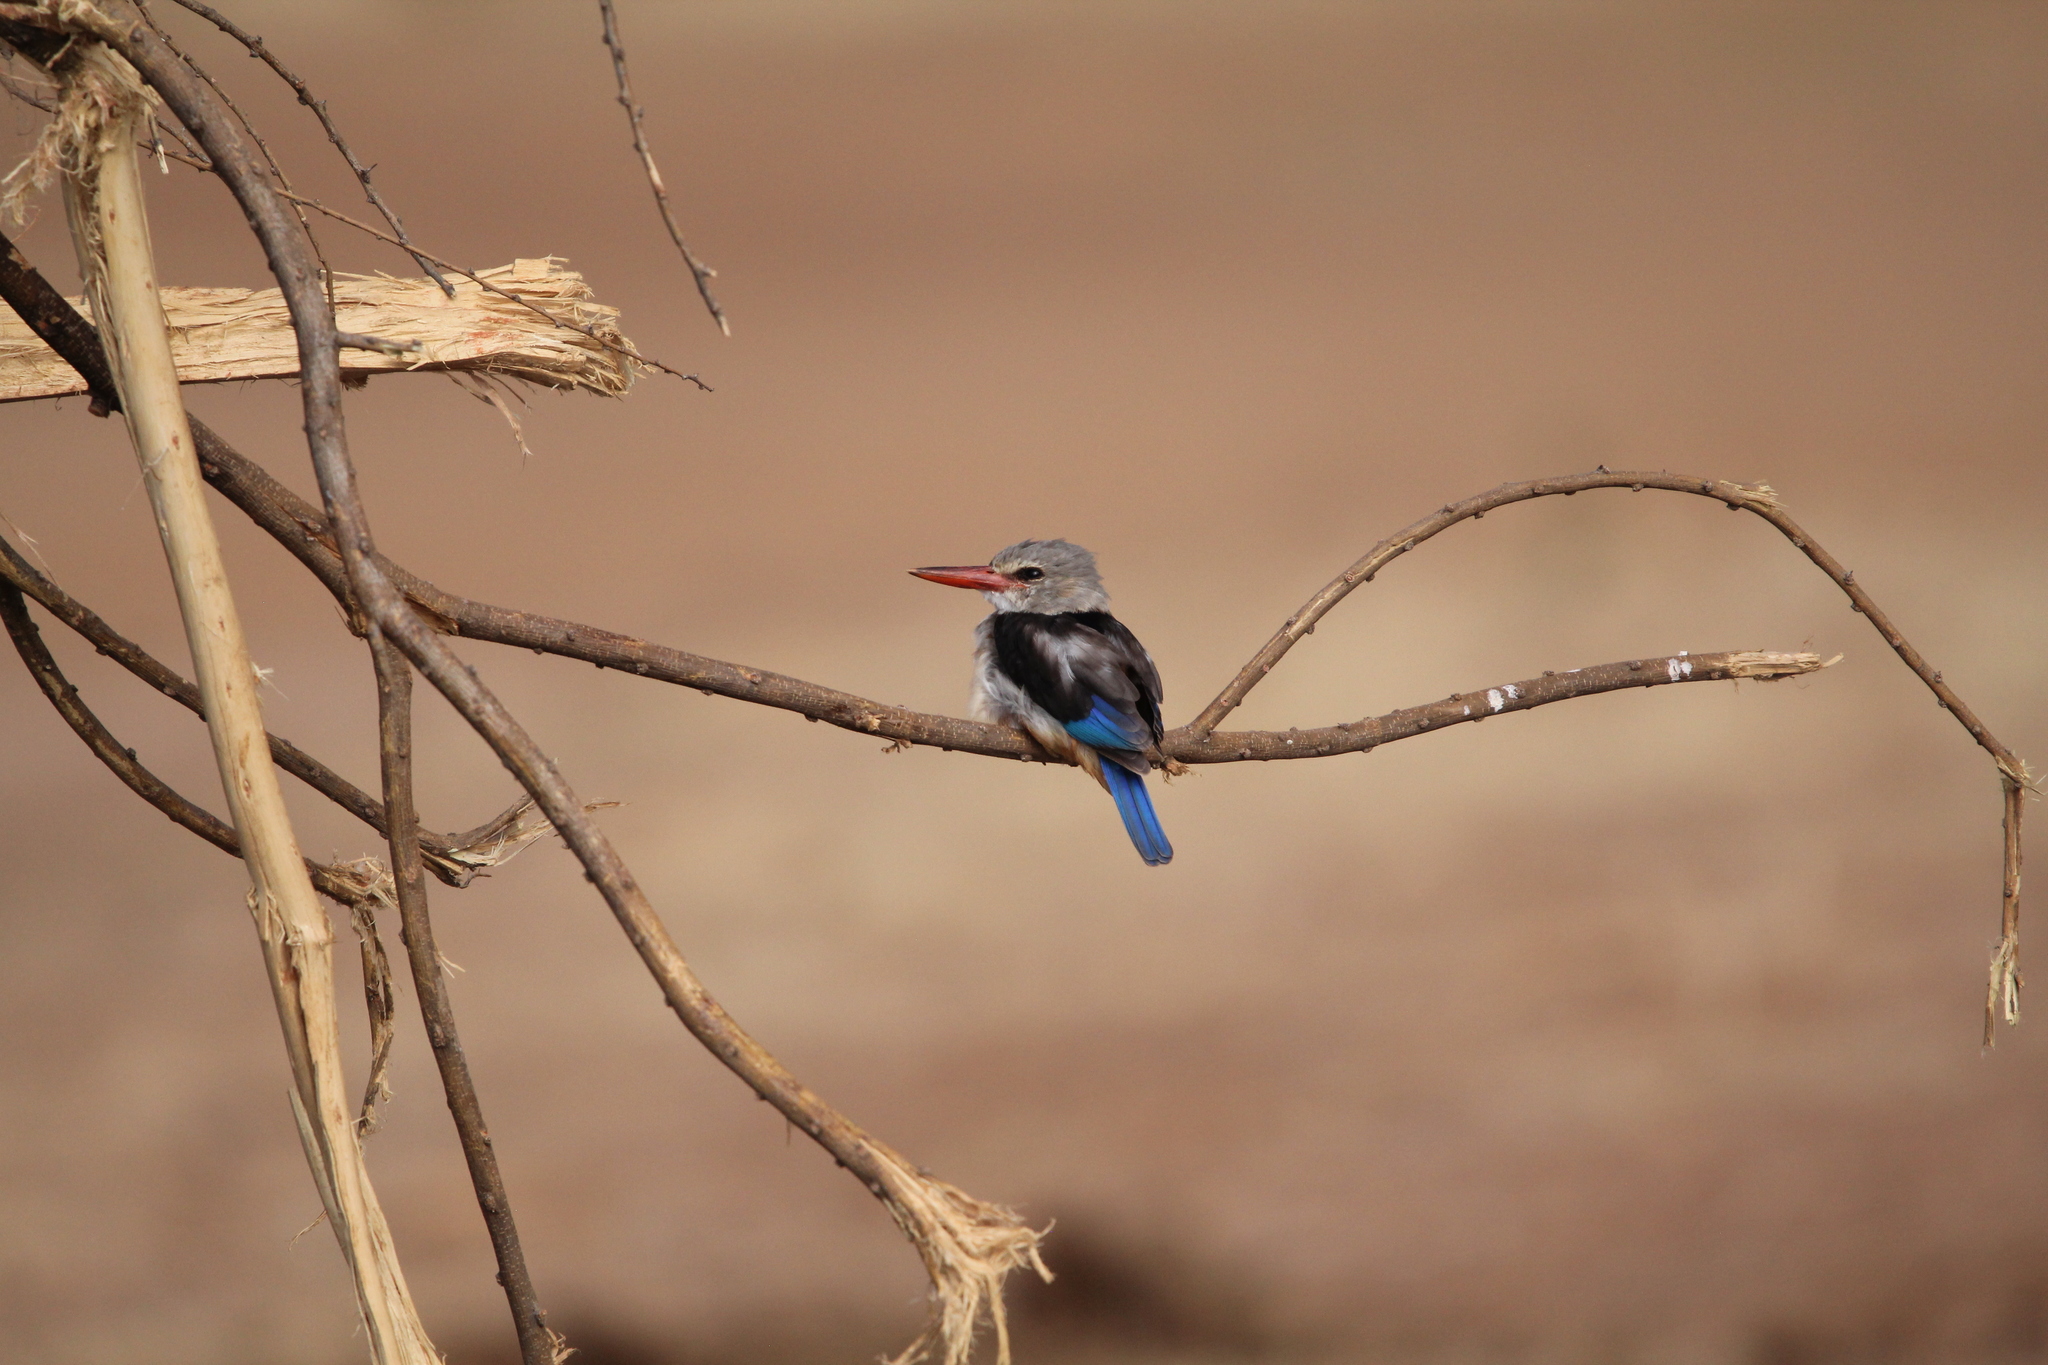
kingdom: Animalia
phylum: Chordata
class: Aves
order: Coraciiformes
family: Alcedinidae
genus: Halcyon
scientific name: Halcyon leucocephala
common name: Grey-headed kingfisher
